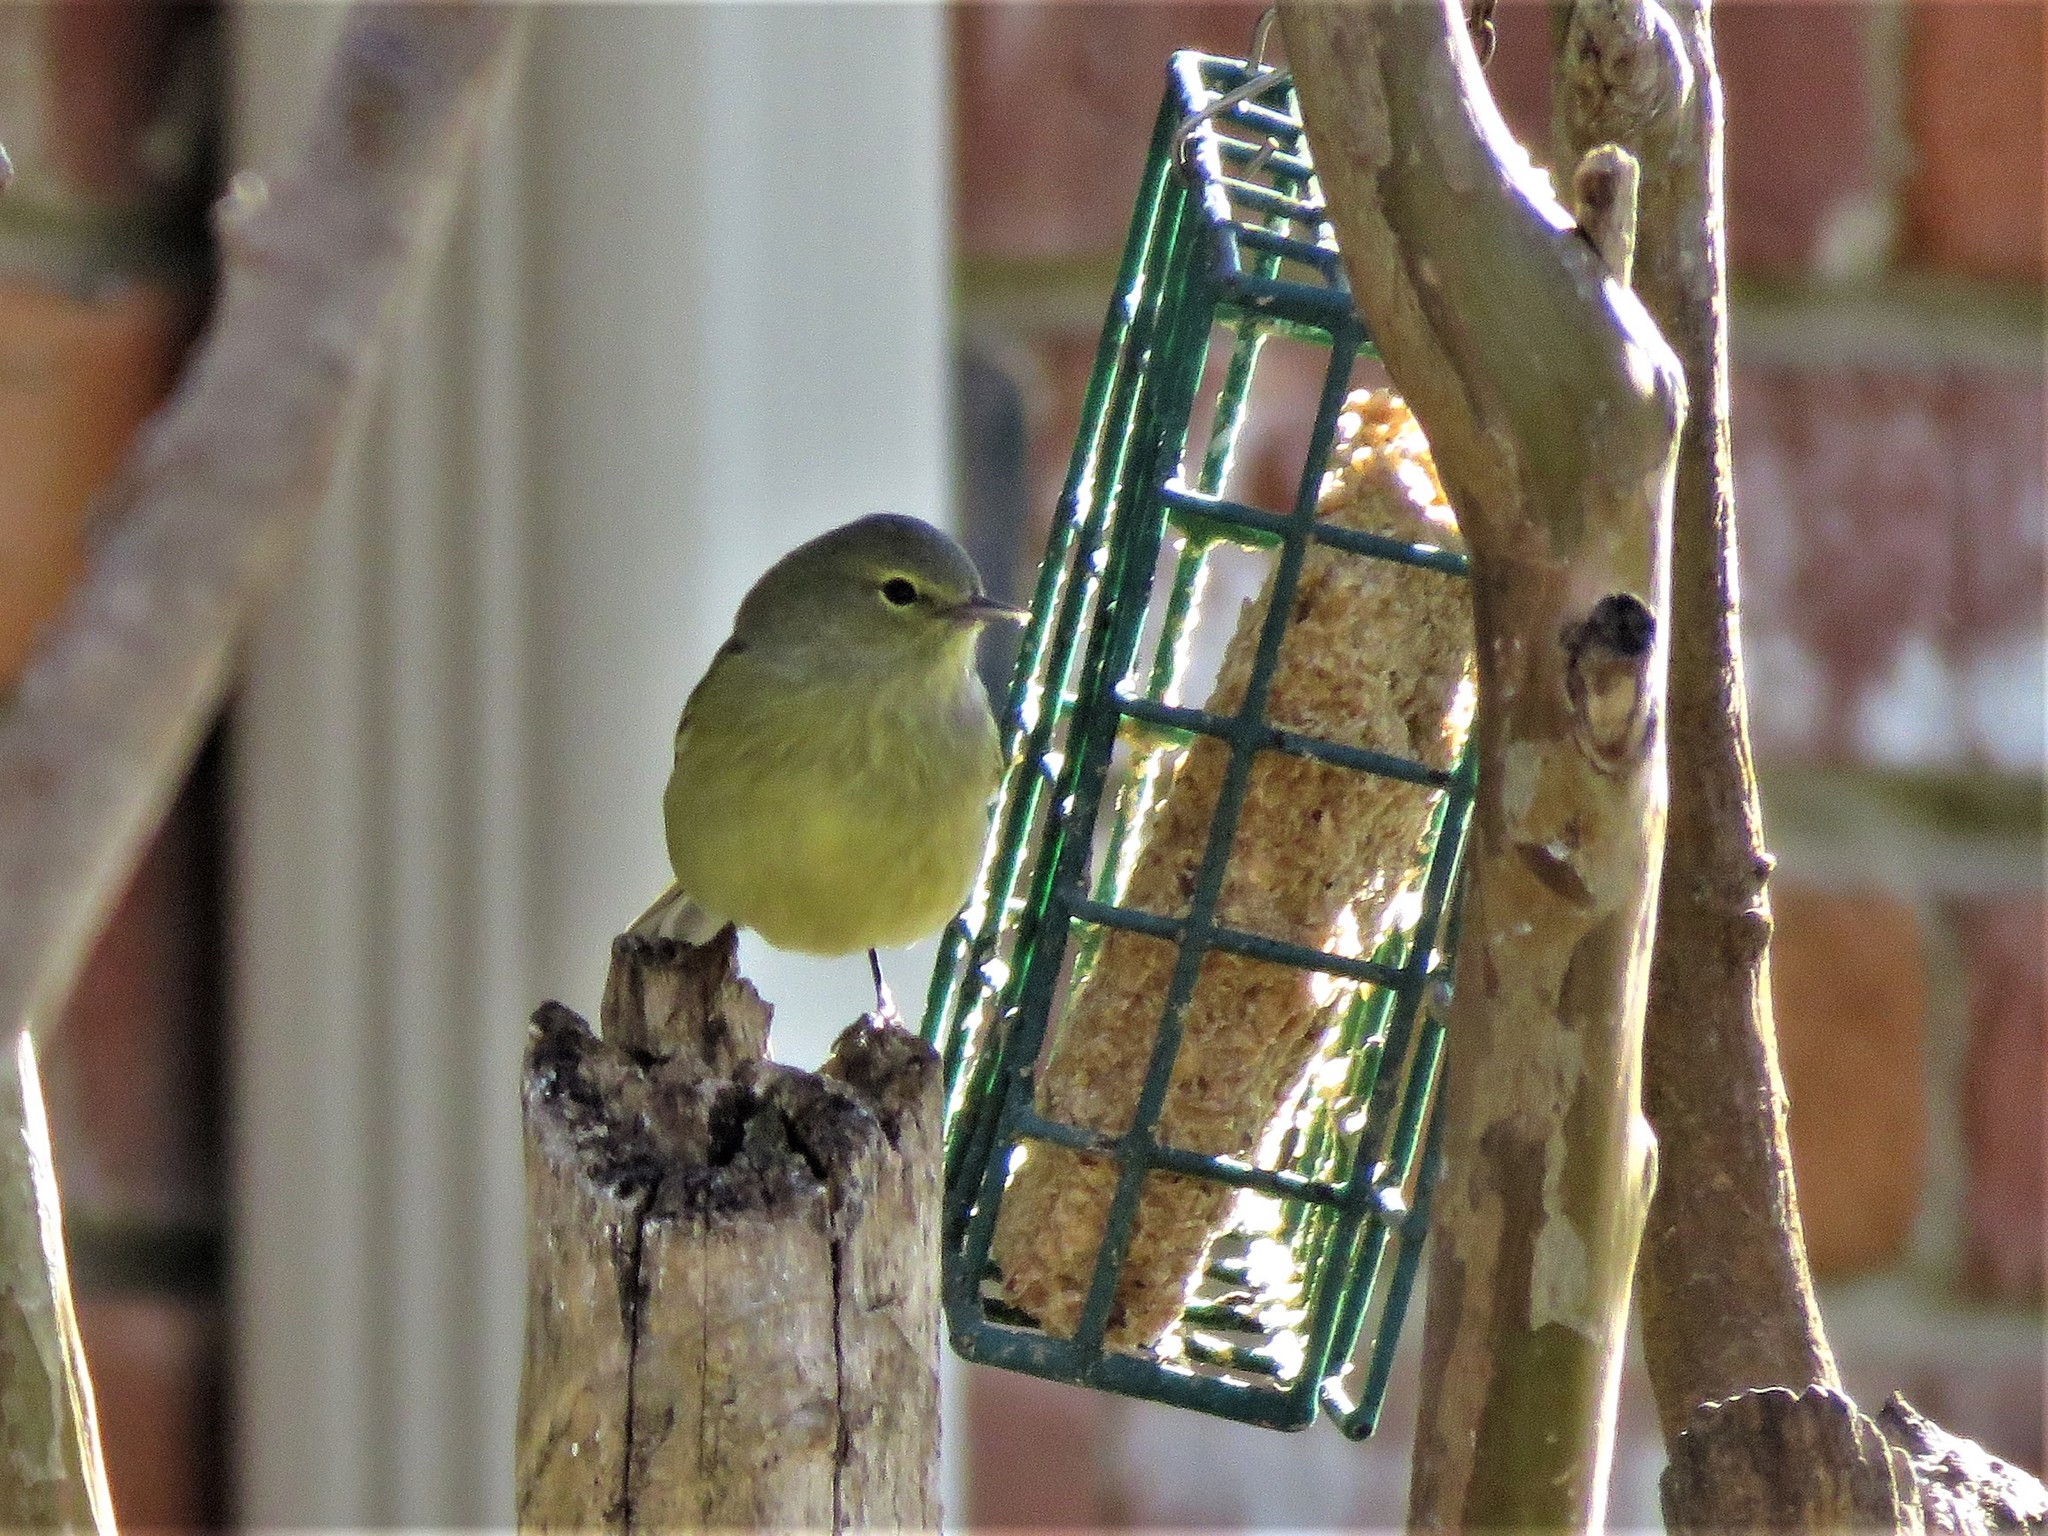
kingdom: Animalia
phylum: Chordata
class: Aves
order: Passeriformes
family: Parulidae
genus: Leiothlypis
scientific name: Leiothlypis celata
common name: Orange-crowned warbler
